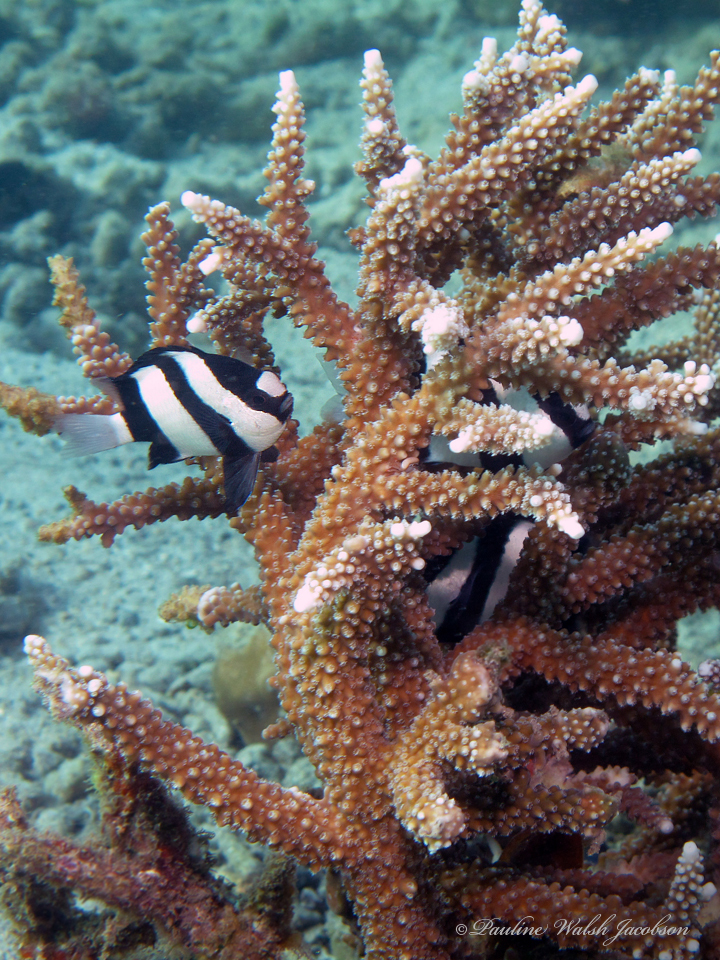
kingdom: Animalia
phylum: Chordata
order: Perciformes
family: Pomacentridae
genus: Dascyllus
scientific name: Dascyllus aruanus
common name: Humbug dascyllus
